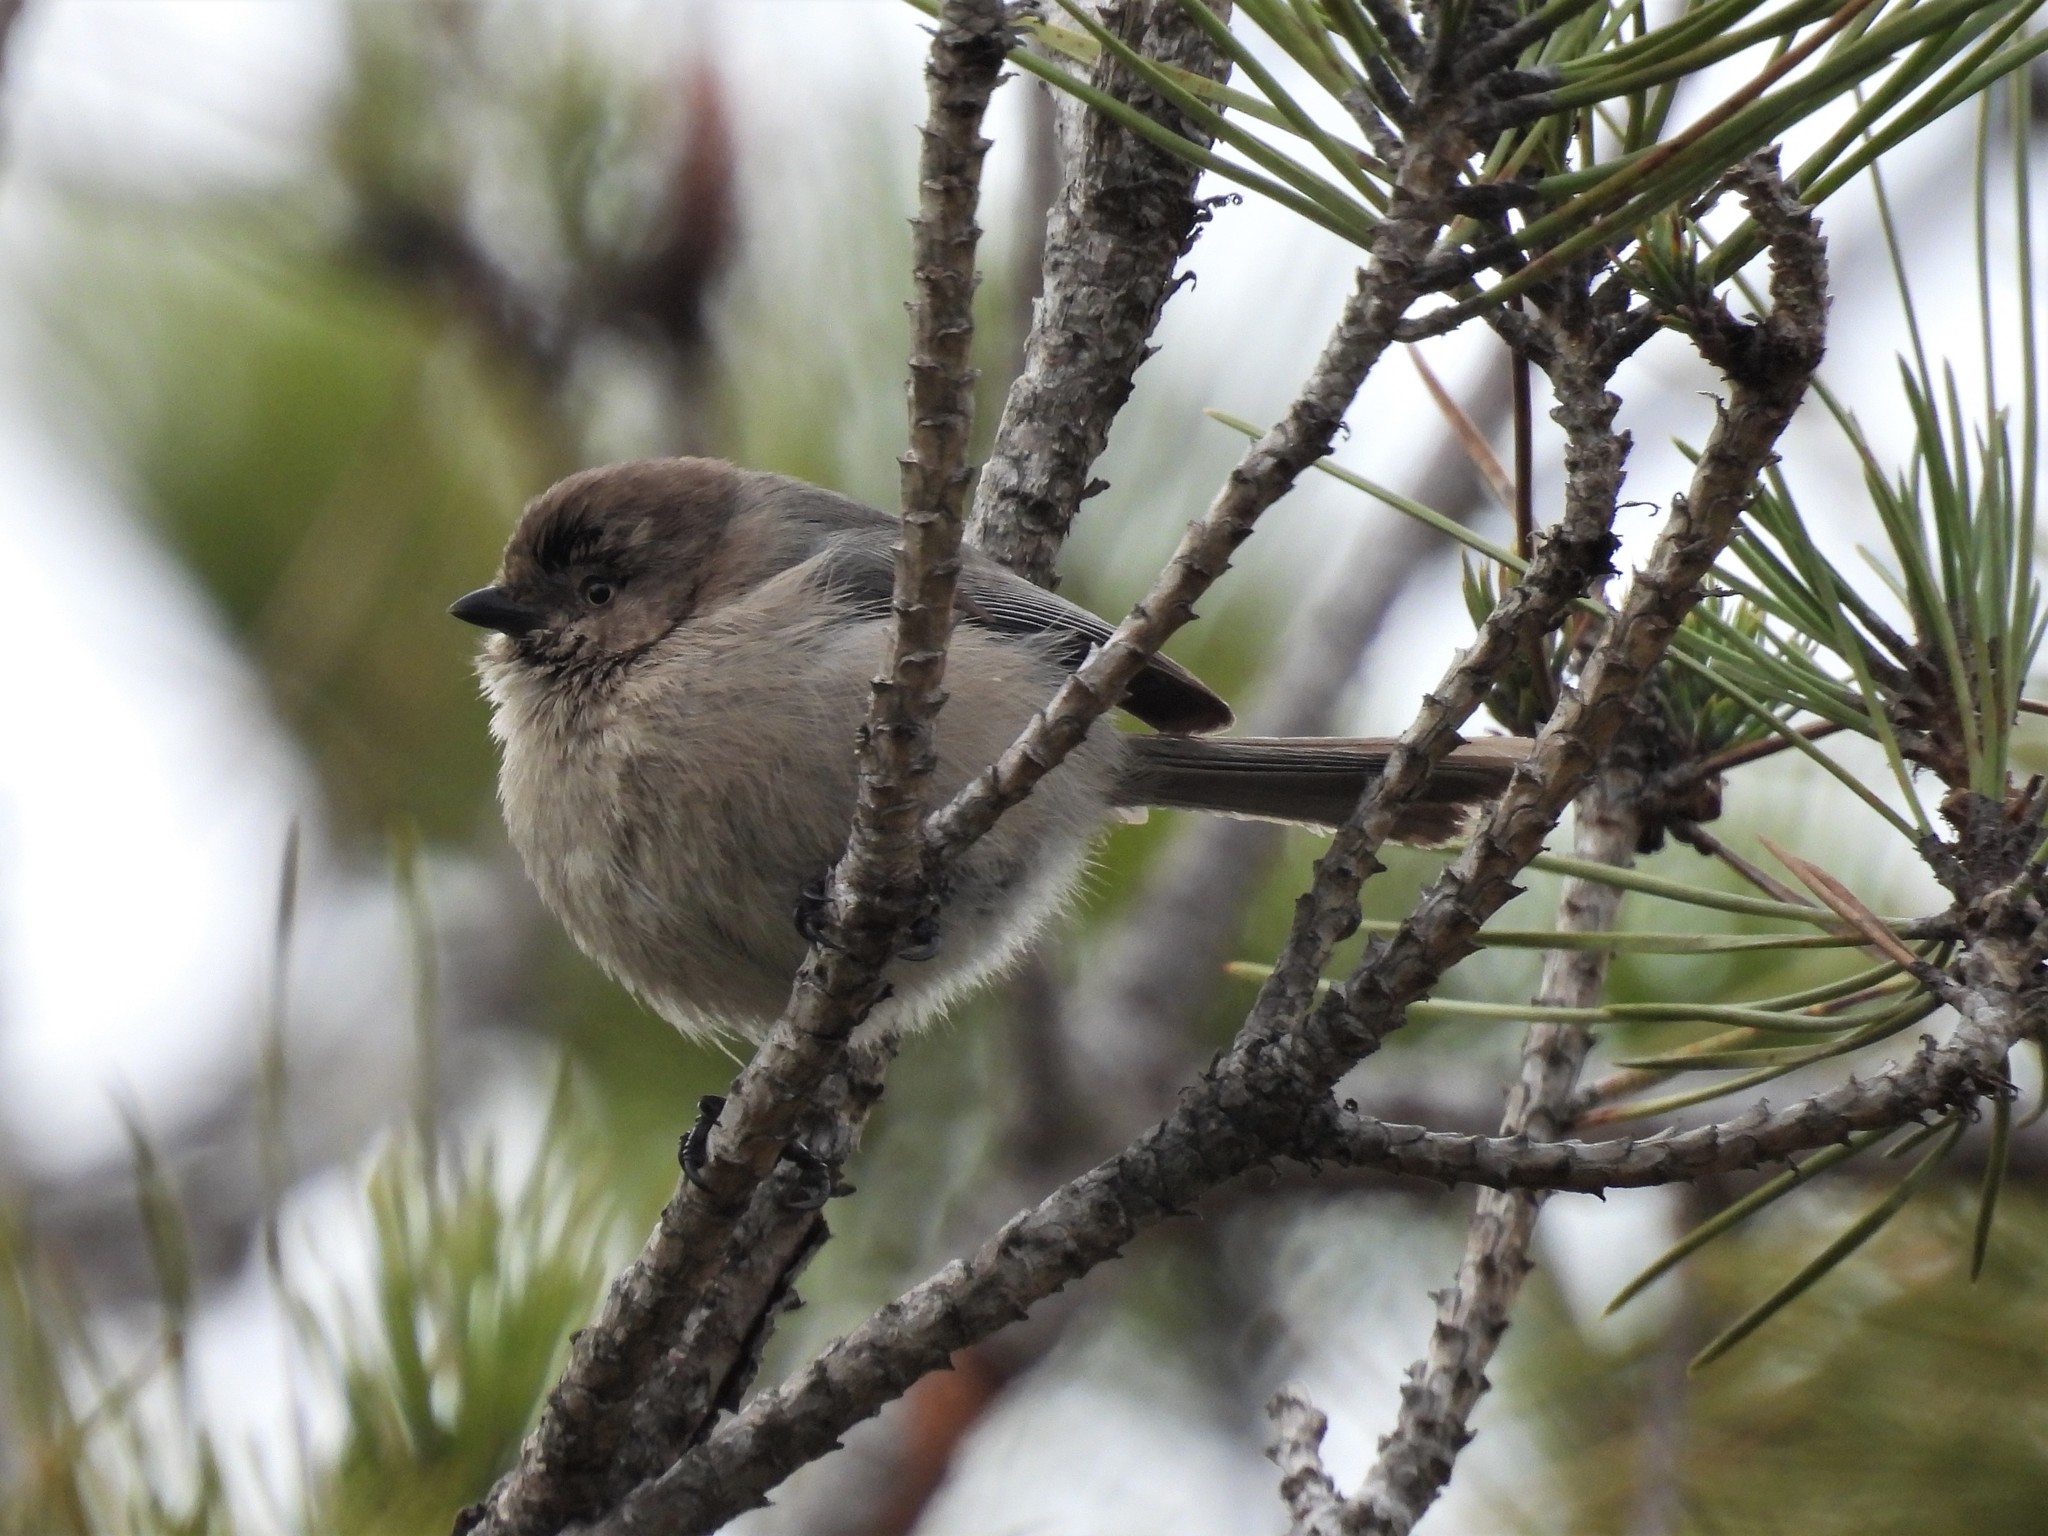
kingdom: Animalia
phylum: Chordata
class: Aves
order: Passeriformes
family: Aegithalidae
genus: Psaltriparus
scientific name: Psaltriparus minimus
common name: American bushtit
